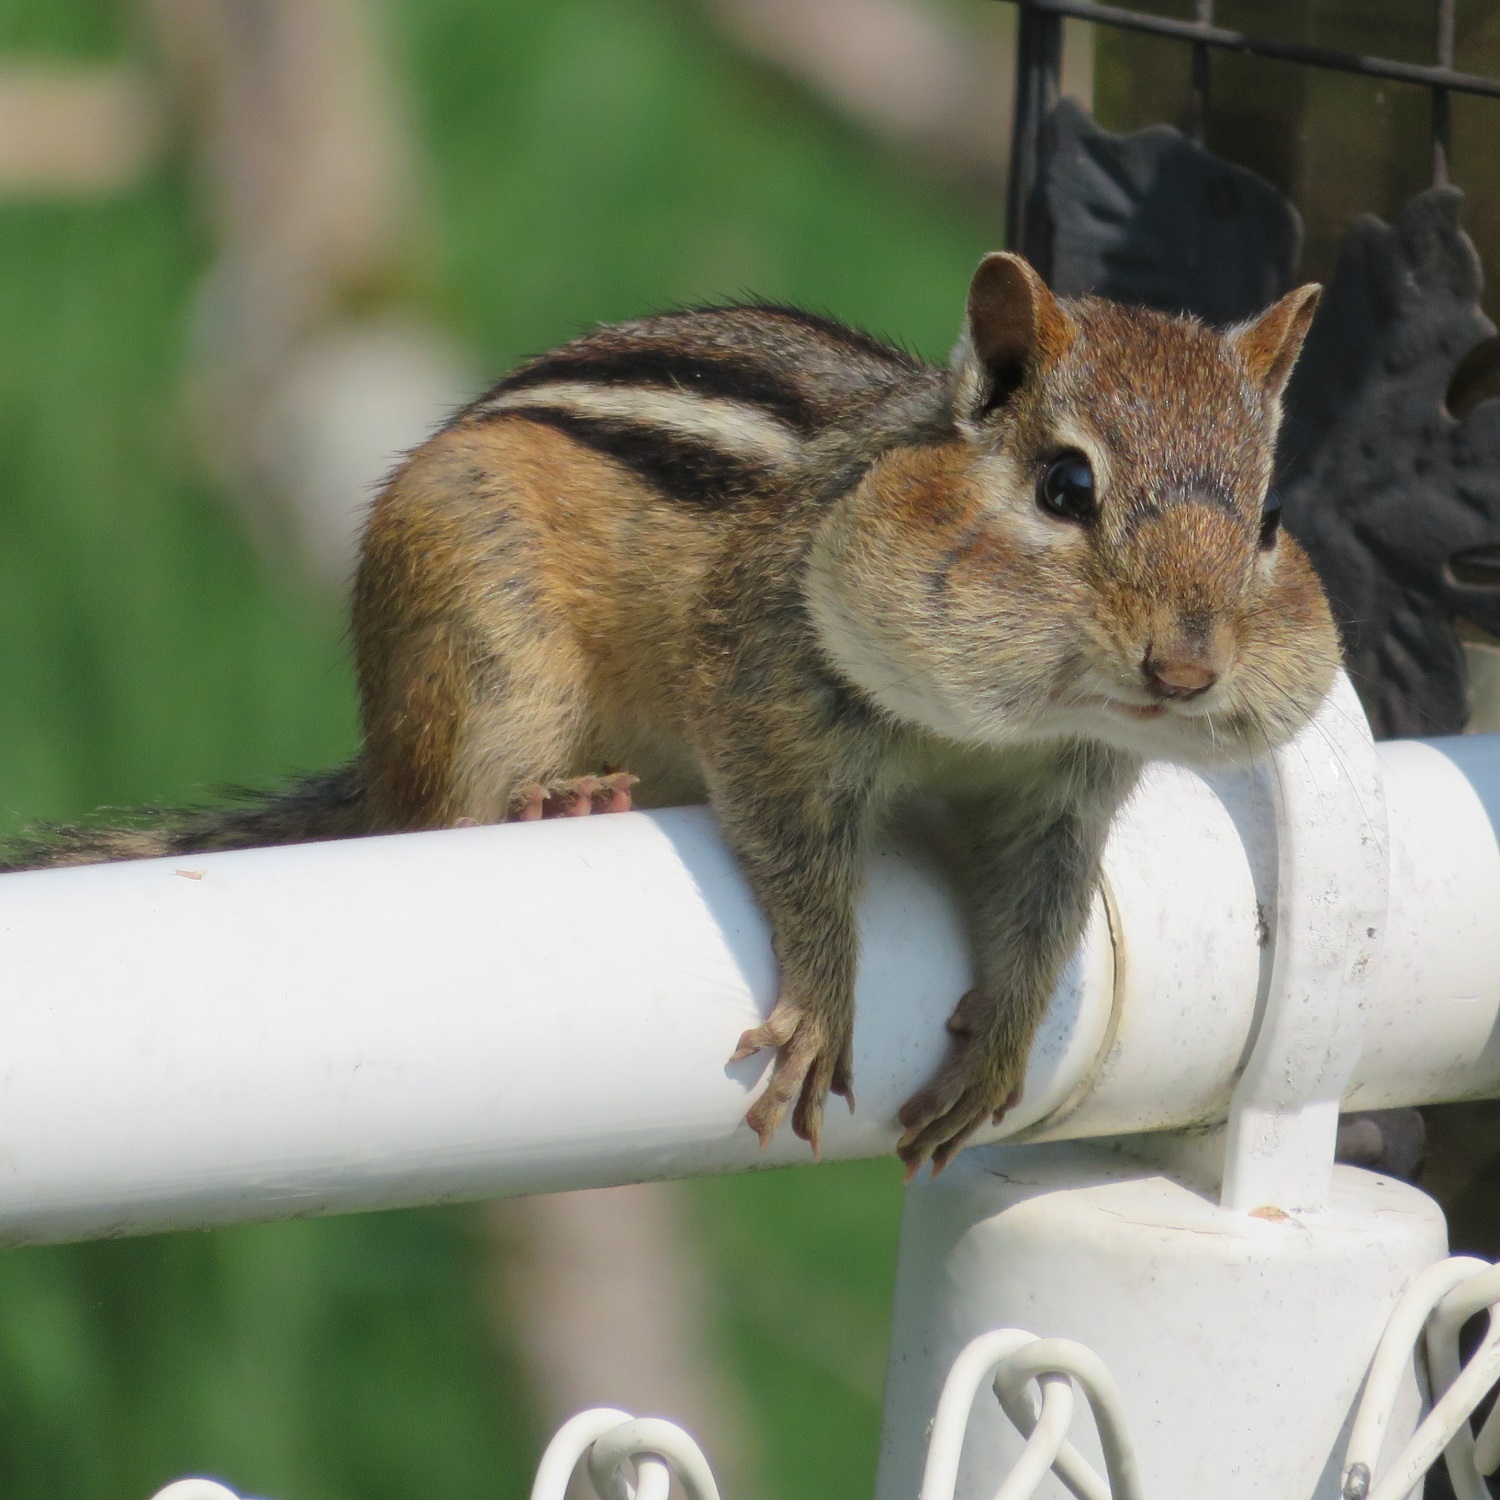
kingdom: Animalia
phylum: Chordata
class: Mammalia
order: Rodentia
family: Sciuridae
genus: Tamias
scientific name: Tamias striatus
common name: Eastern chipmunk
